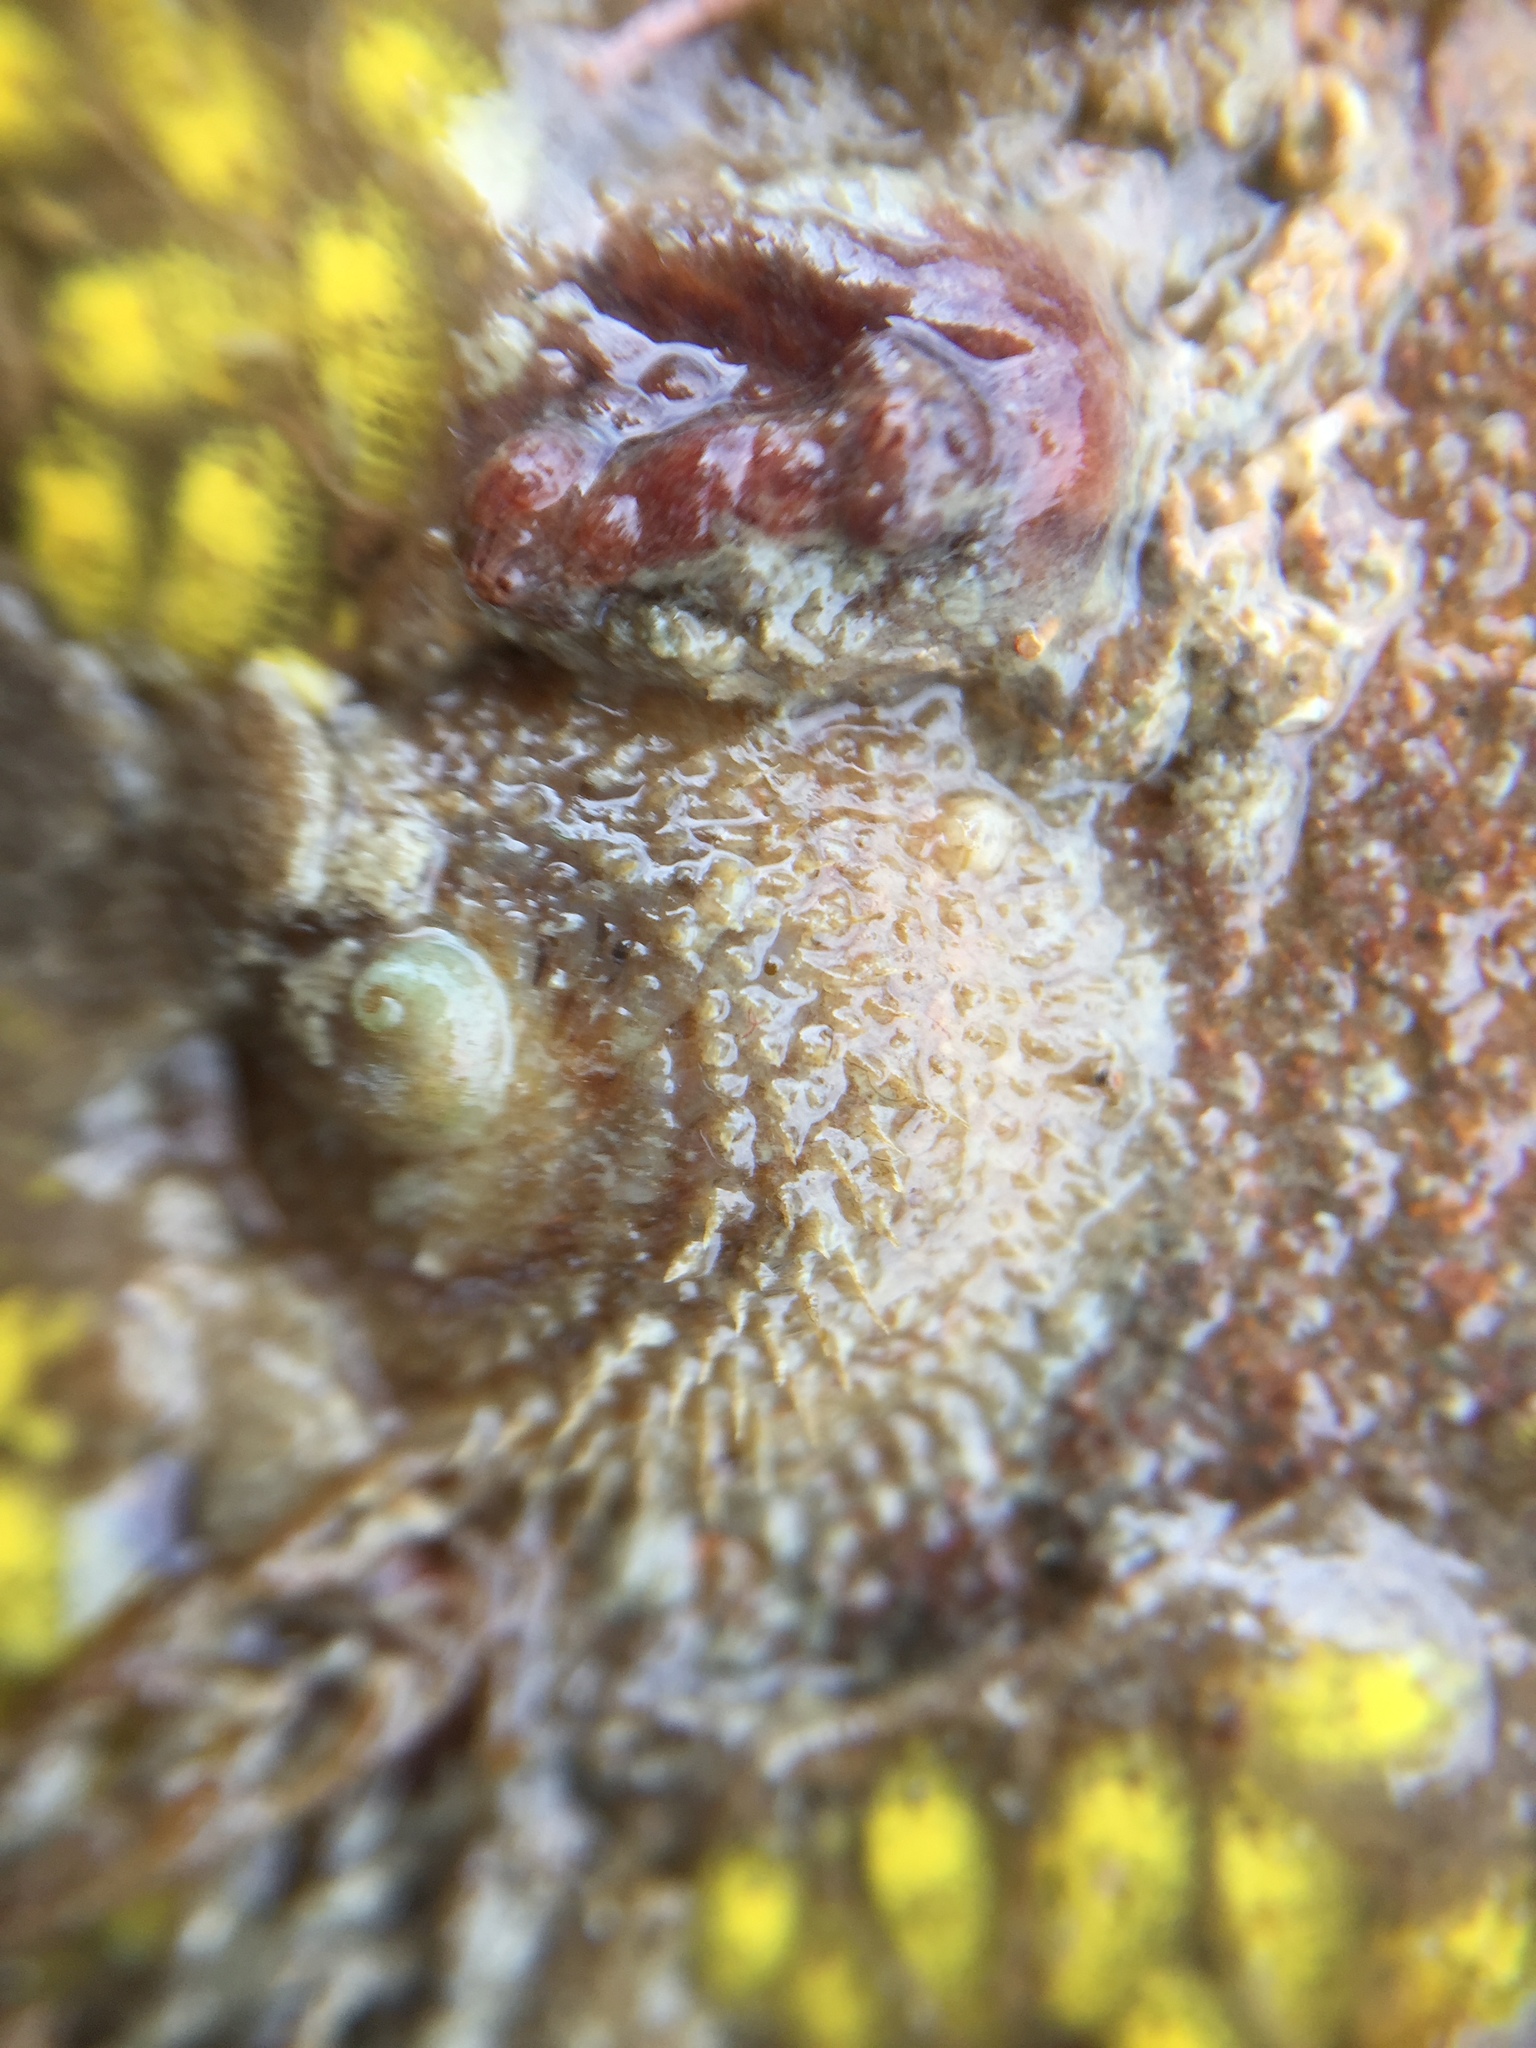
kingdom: Animalia
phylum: Mollusca
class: Gastropoda
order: Littorinimorpha
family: Calyptraeidae
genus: Sigapatella
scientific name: Sigapatella novaezelandiae
